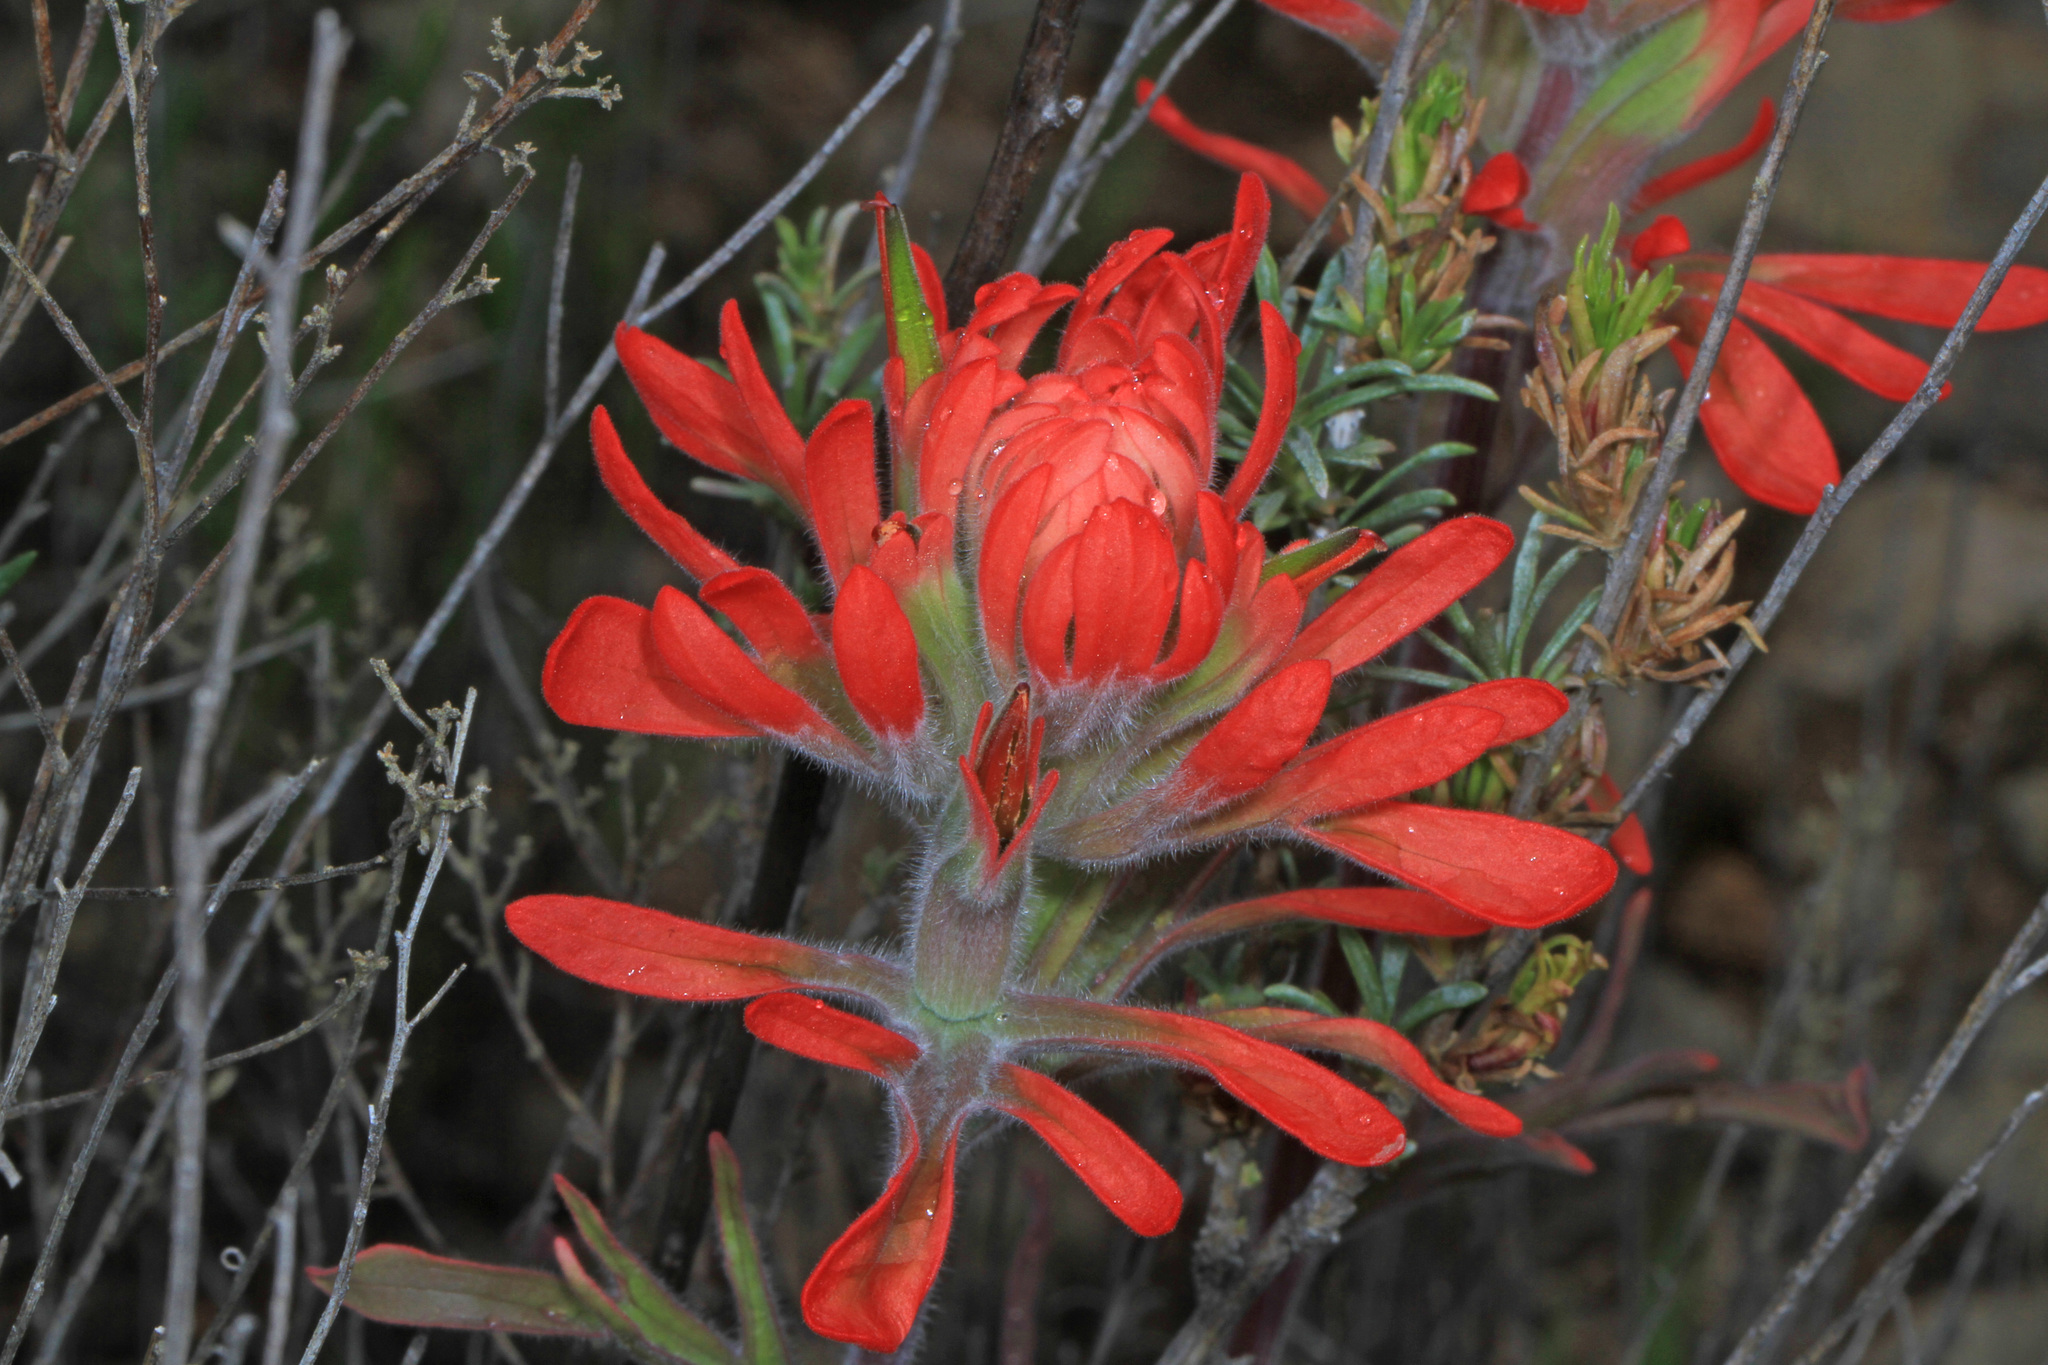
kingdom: Plantae
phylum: Tracheophyta
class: Magnoliopsida
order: Lamiales
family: Orobanchaceae
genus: Castilleja
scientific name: Castilleja chromosa
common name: Desert paintbrush
